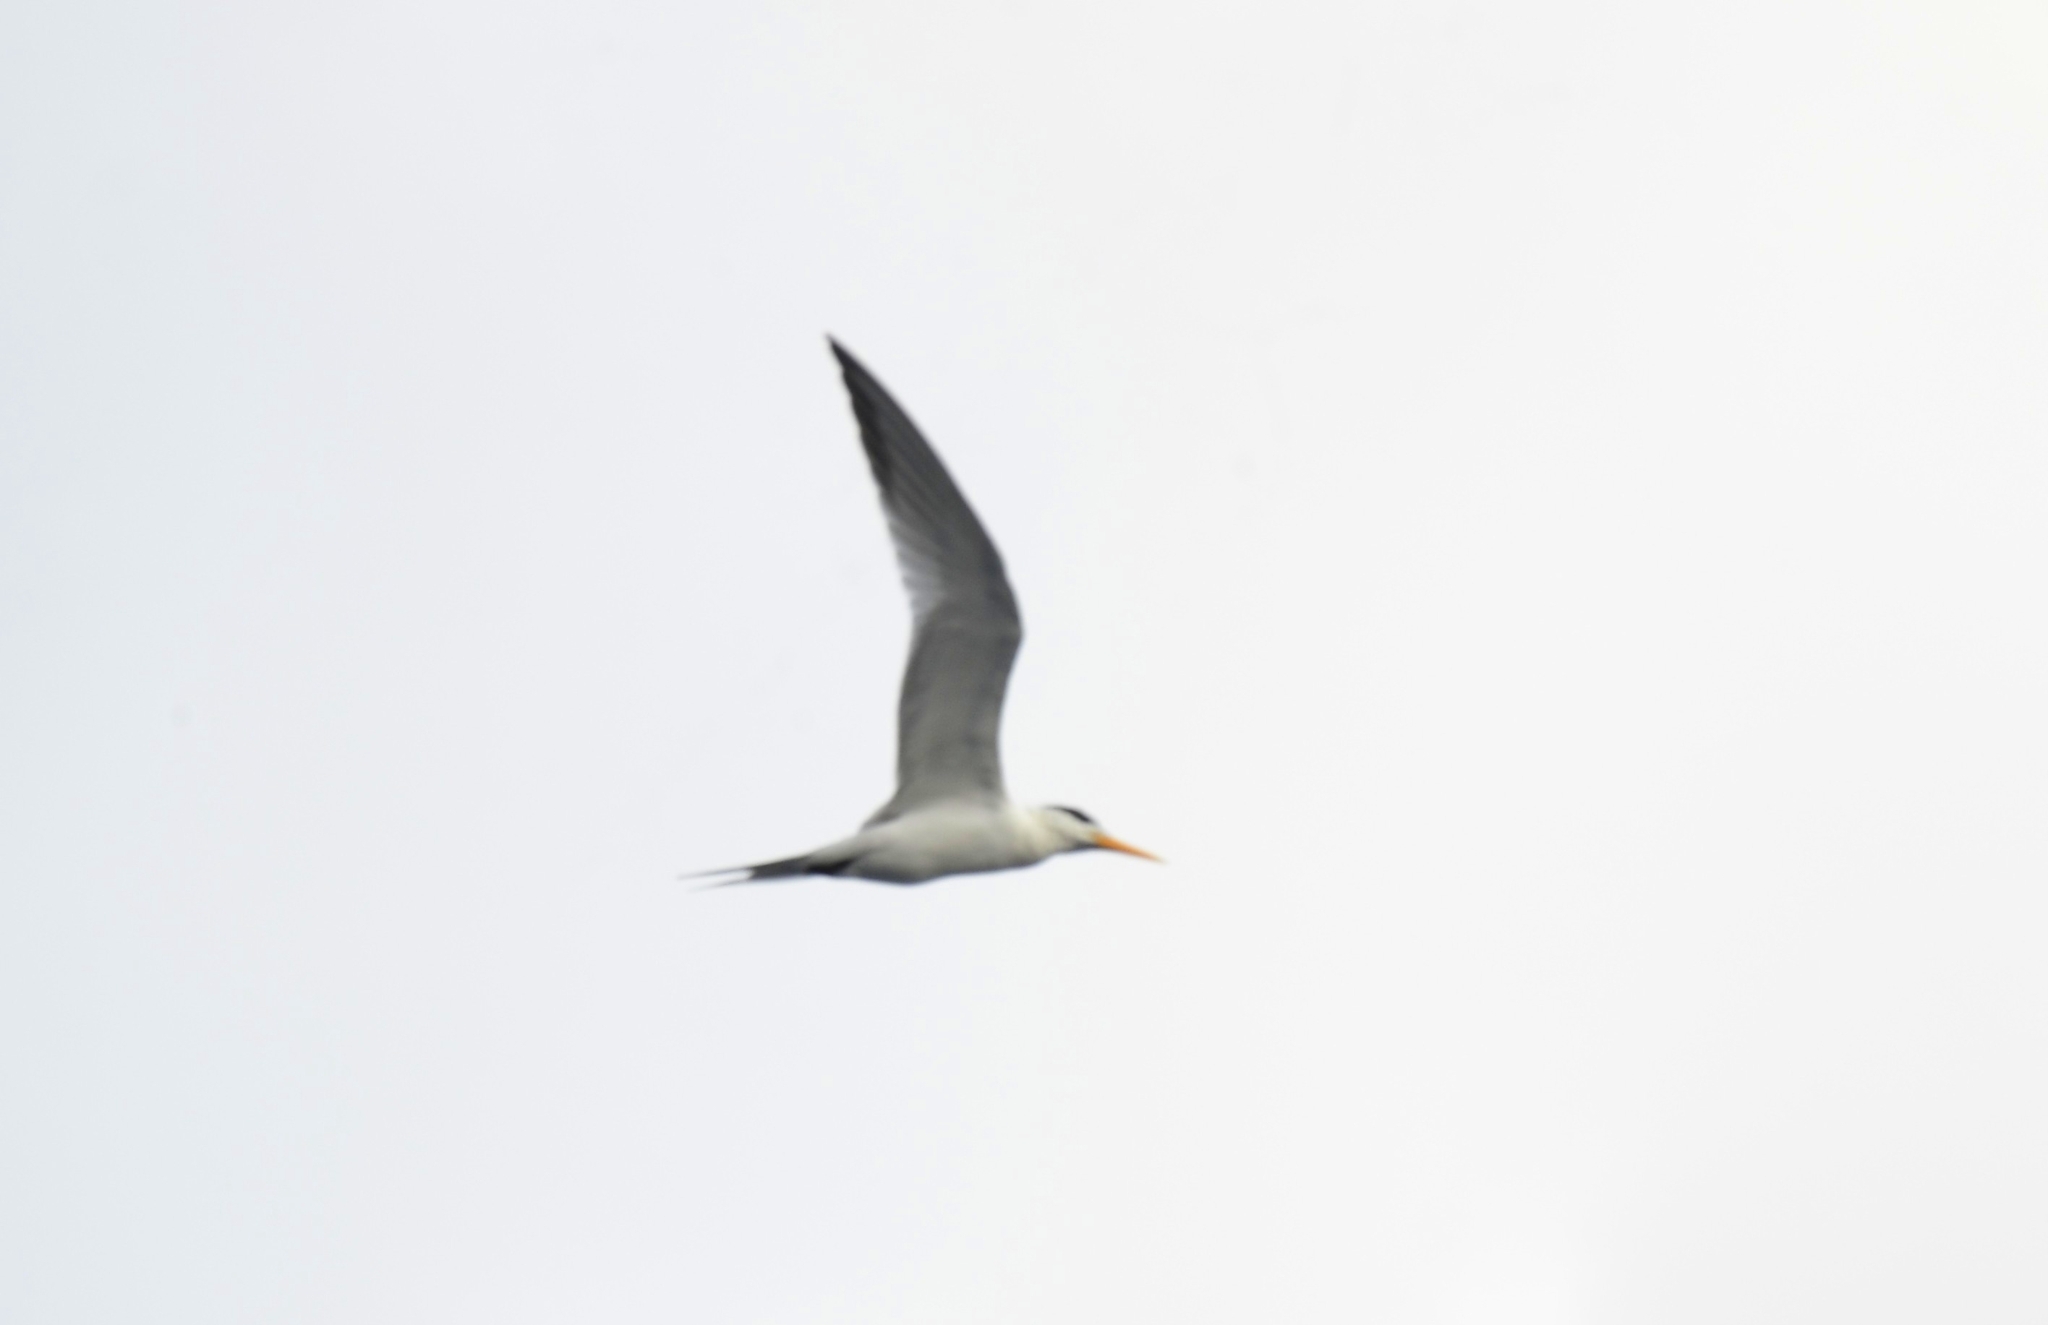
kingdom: Animalia
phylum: Chordata
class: Aves
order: Charadriiformes
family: Laridae
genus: Thalasseus
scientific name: Thalasseus bengalensis
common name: Lesser crested tern
